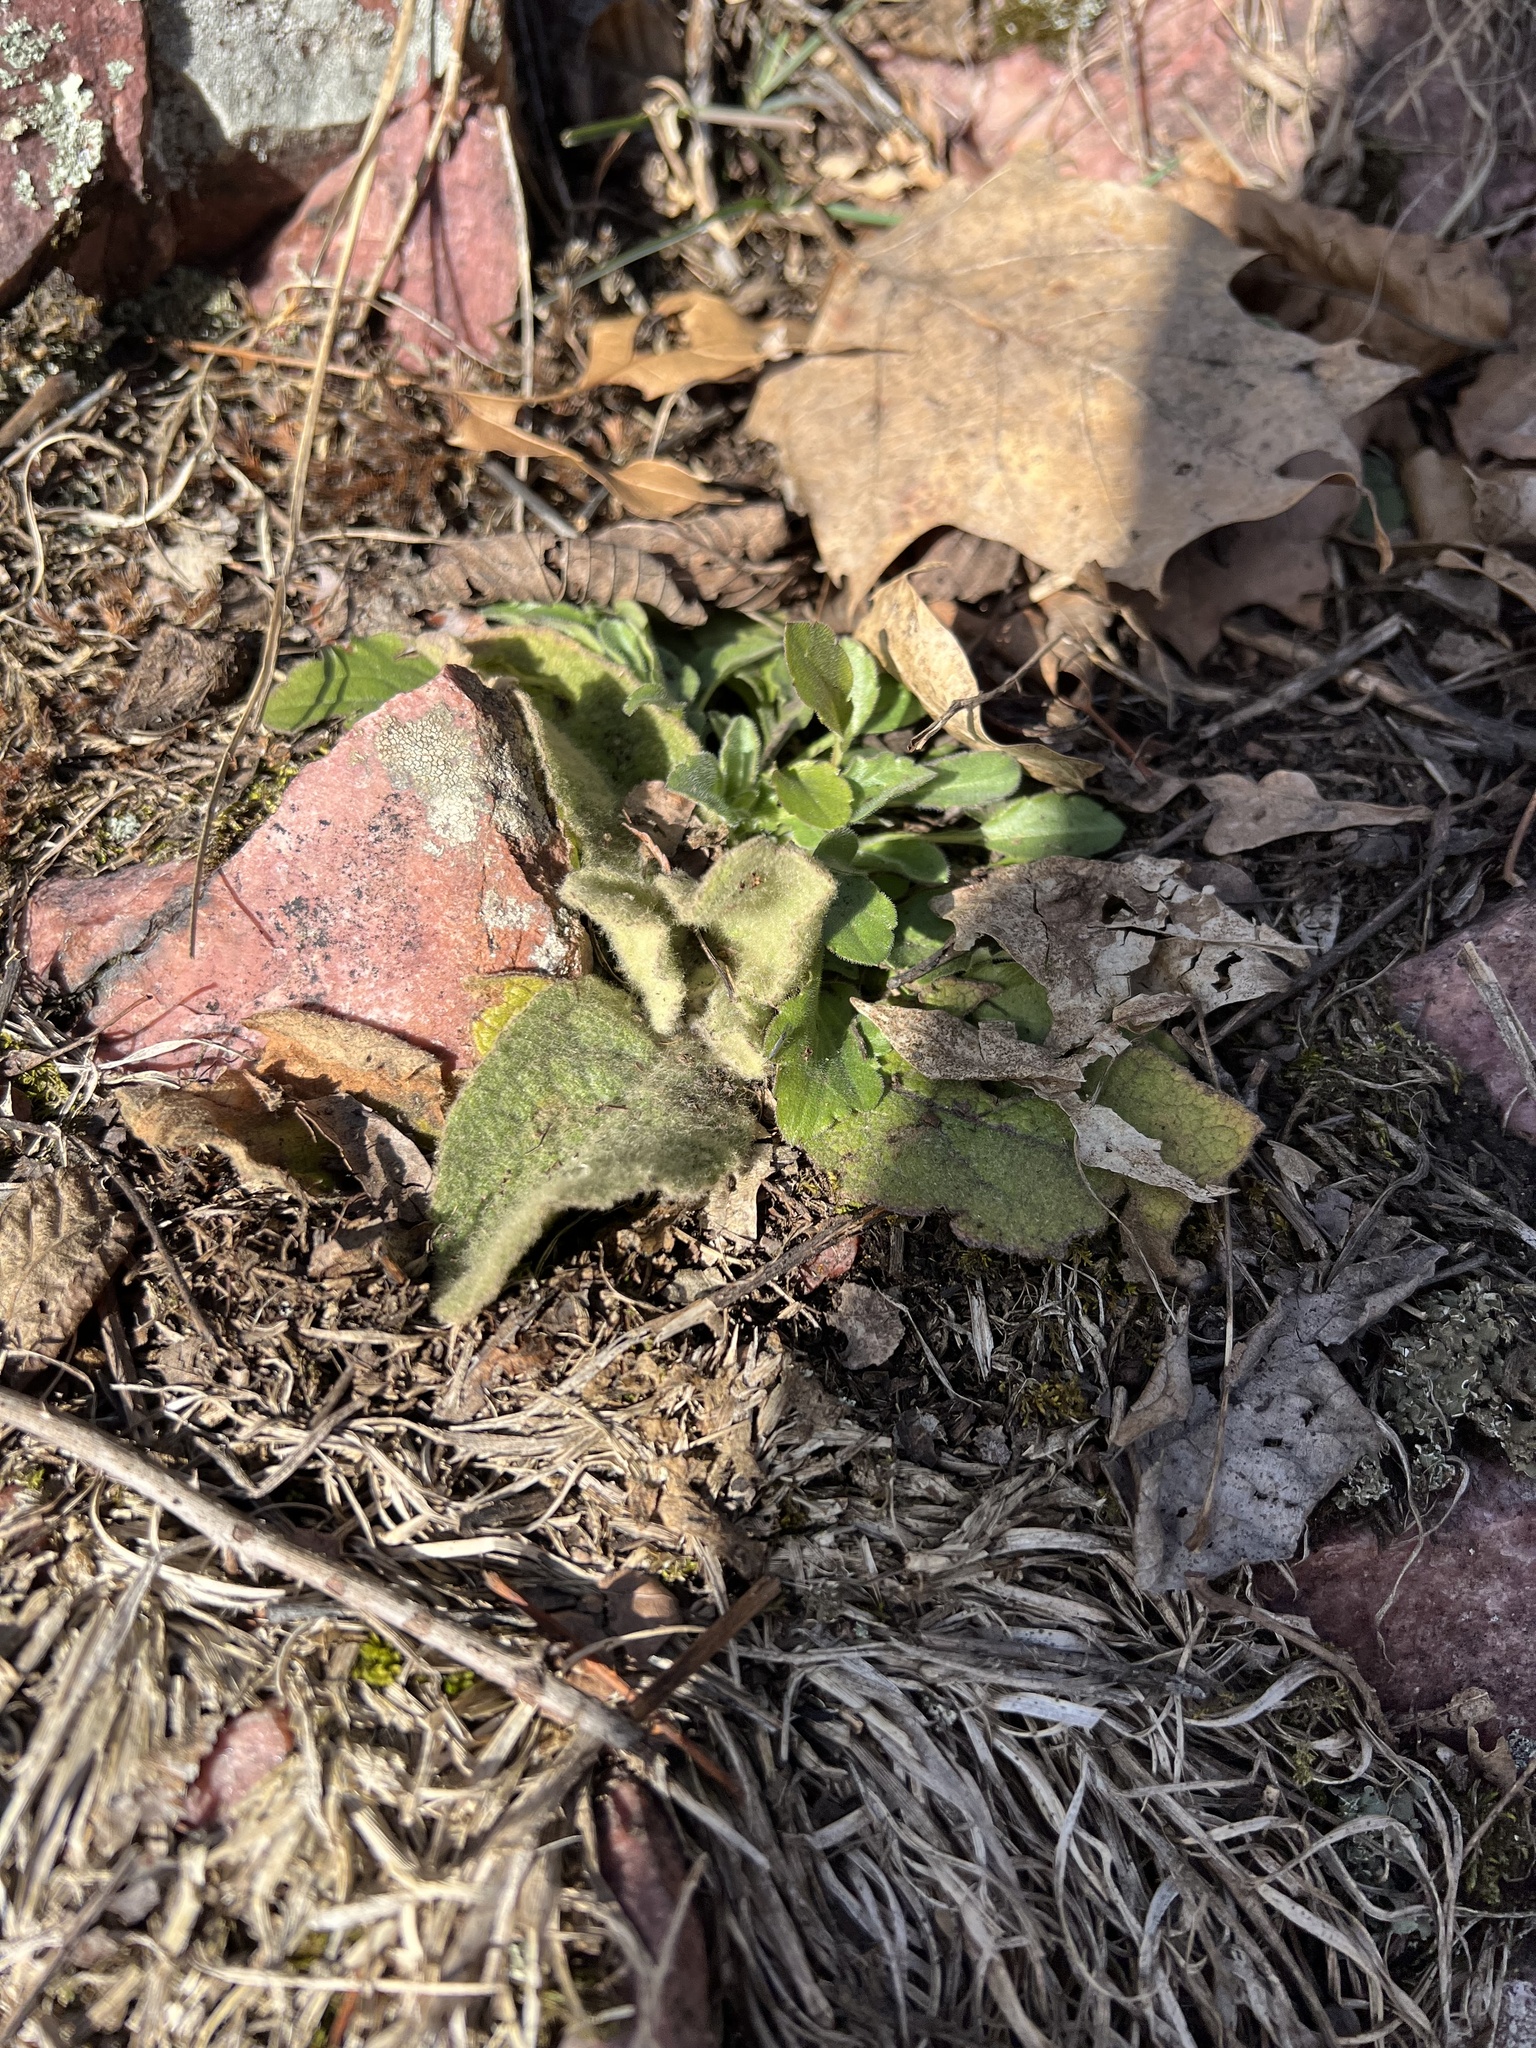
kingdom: Plantae
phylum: Tracheophyta
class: Magnoliopsida
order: Lamiales
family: Scrophulariaceae
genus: Verbascum
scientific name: Verbascum thapsus
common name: Common mullein
